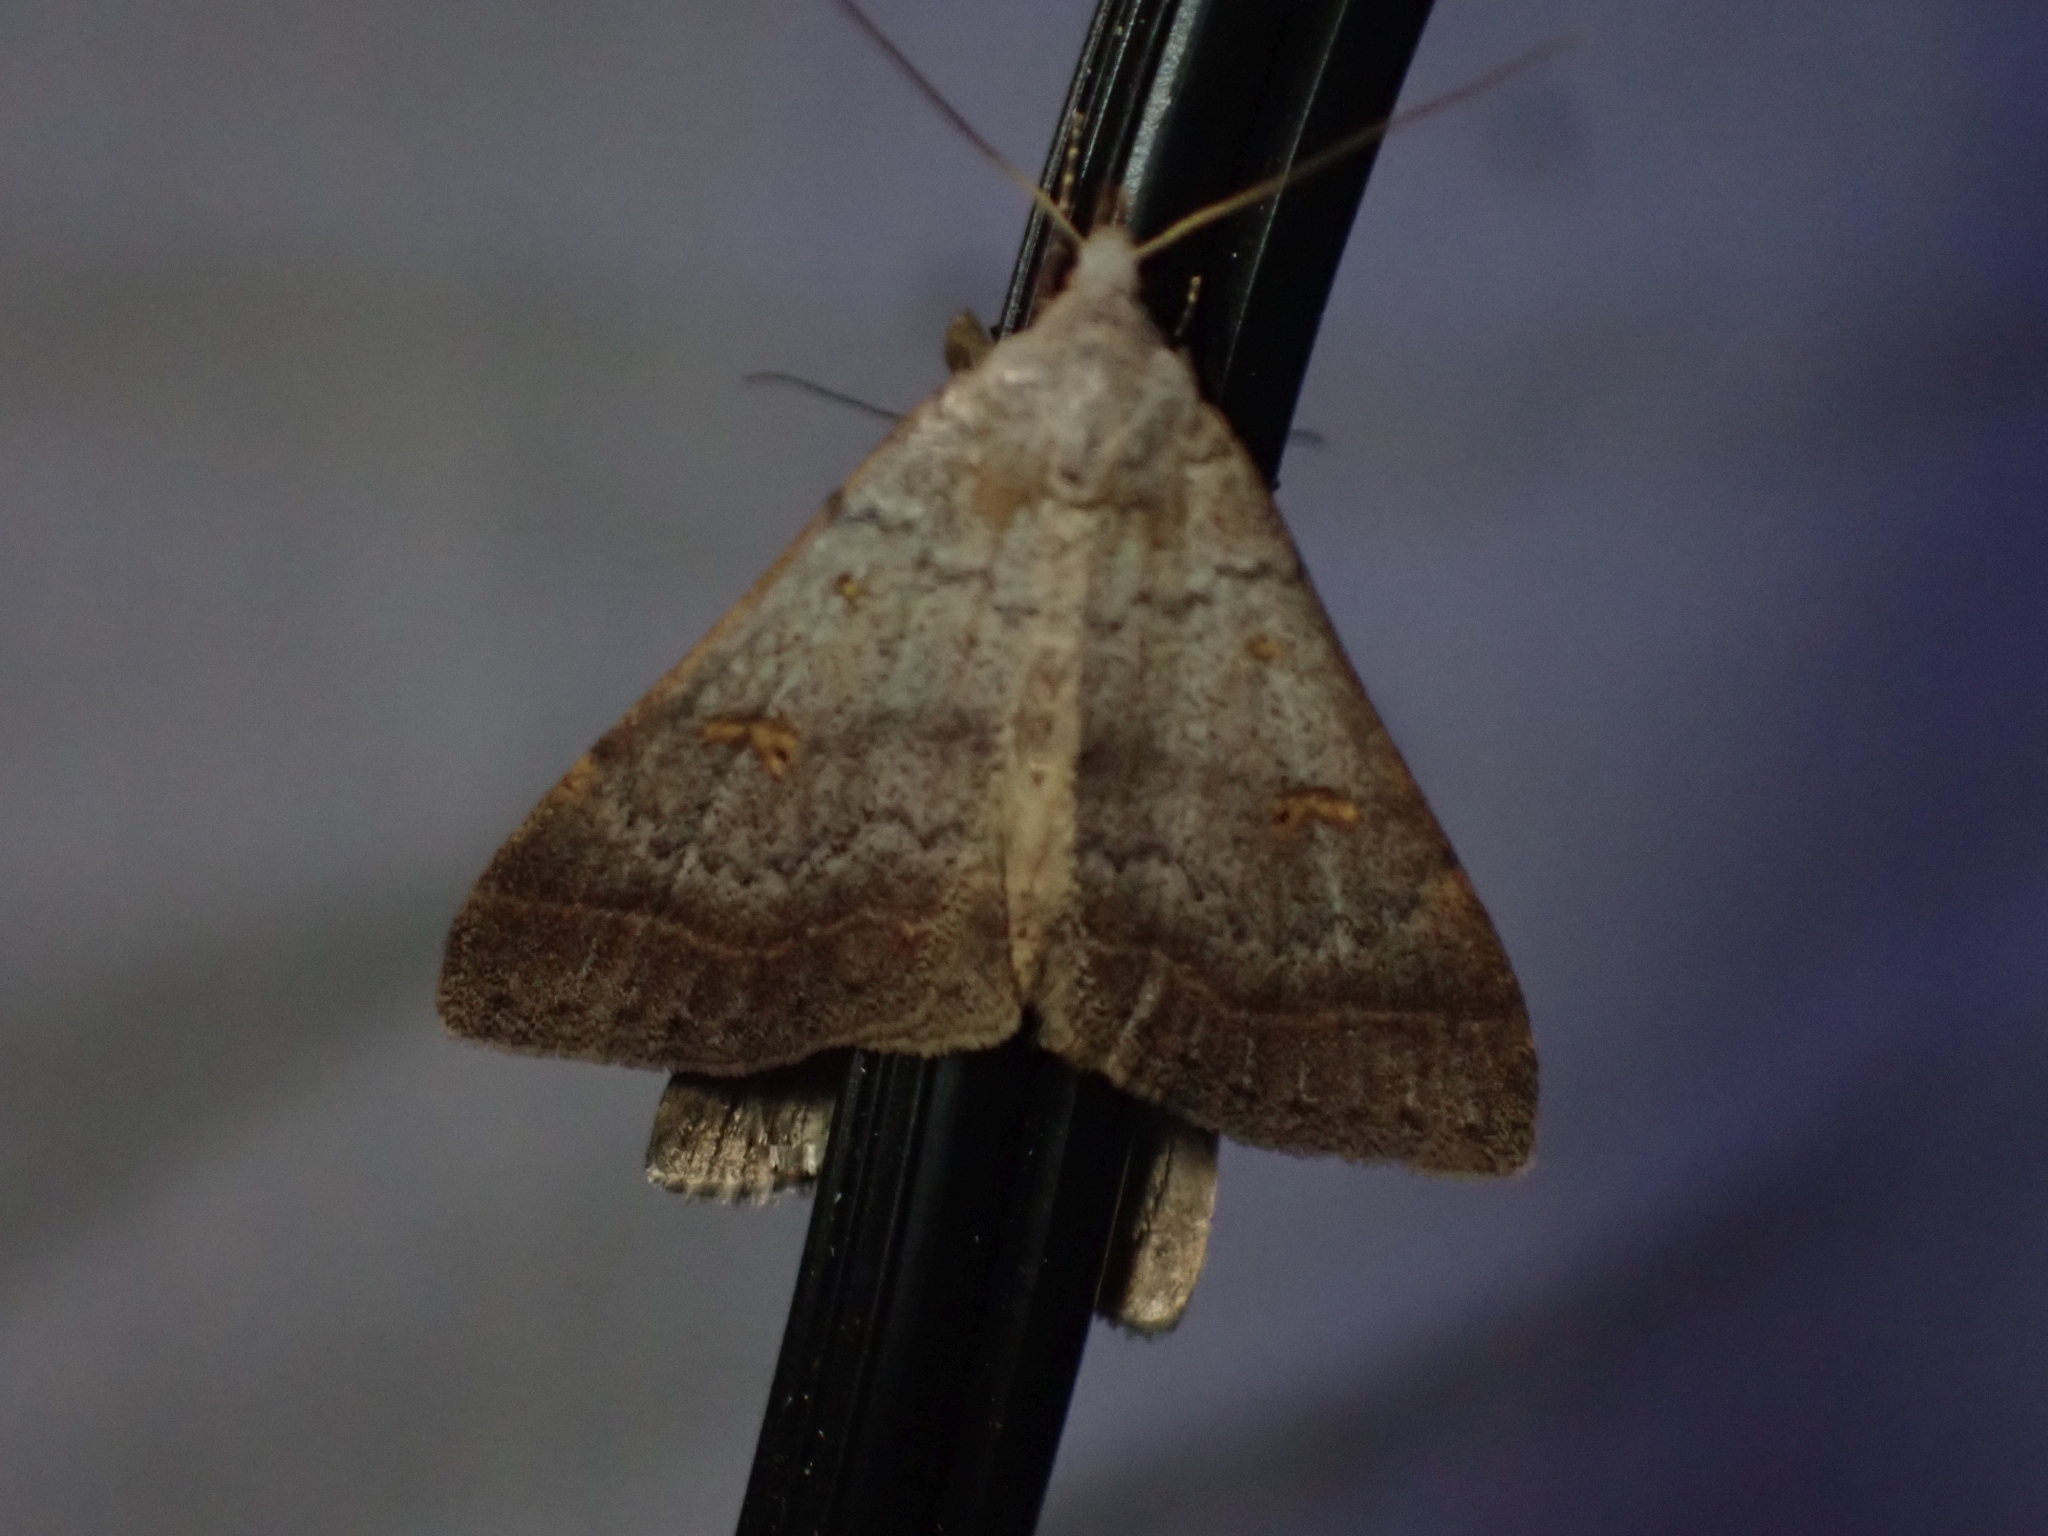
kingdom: Animalia
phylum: Arthropoda
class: Insecta
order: Lepidoptera
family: Erebidae
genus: Bleptina
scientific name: Bleptina caradrinalis
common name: Bent-winged owlet
